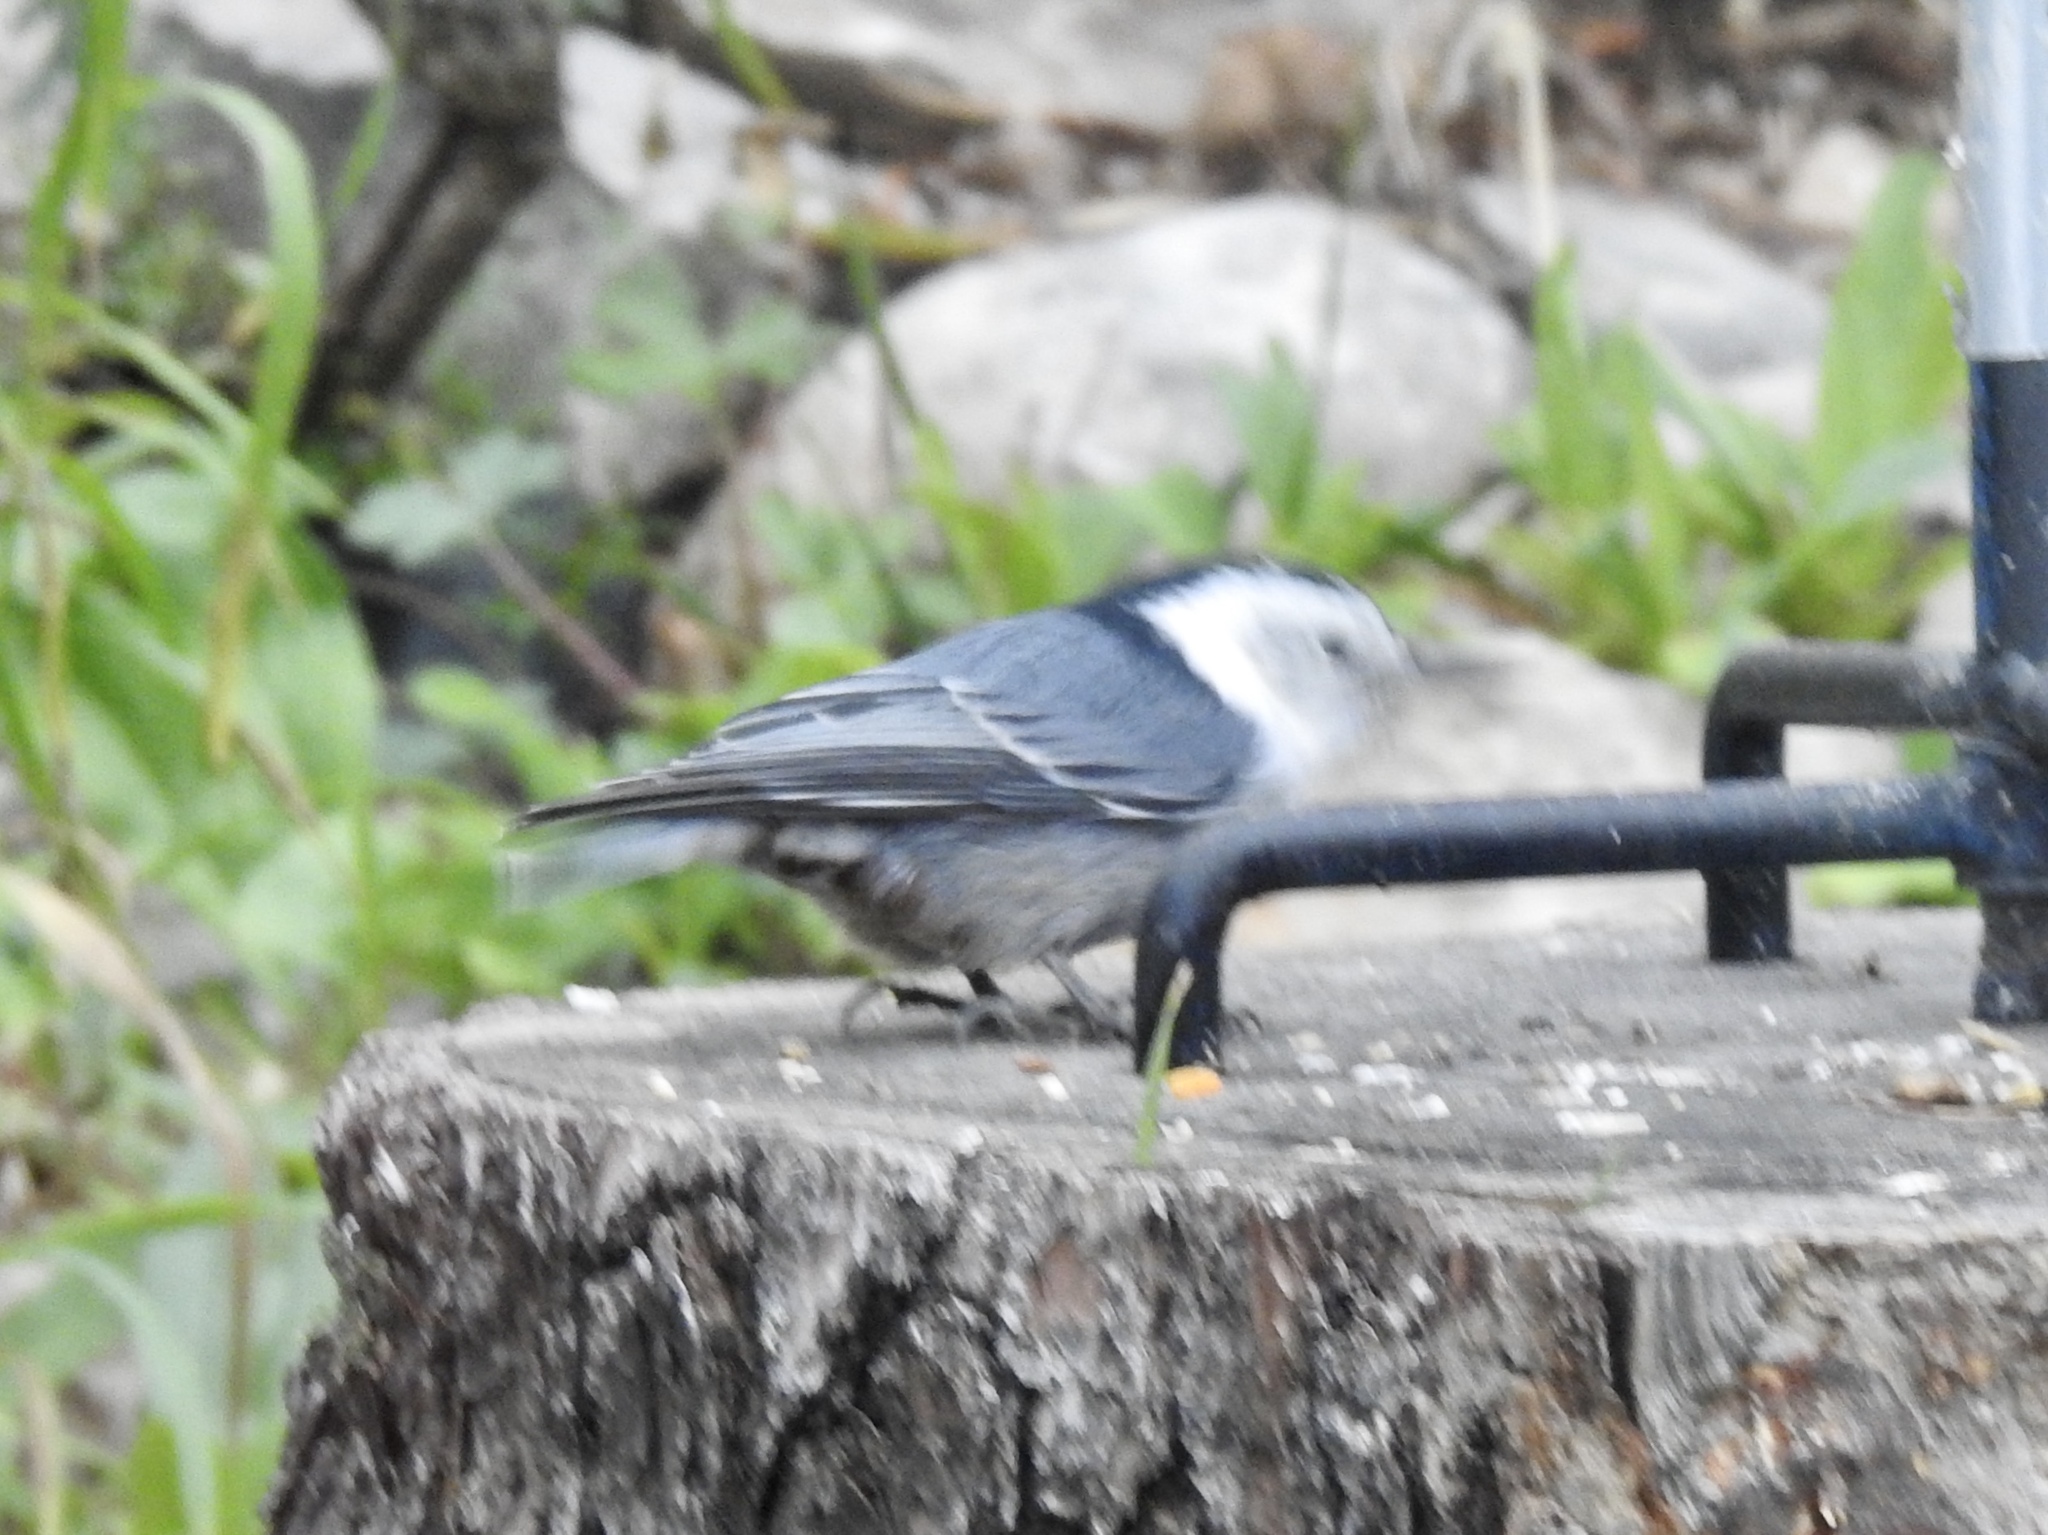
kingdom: Animalia
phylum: Chordata
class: Aves
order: Passeriformes
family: Sittidae
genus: Sitta
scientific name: Sitta carolinensis
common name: White-breasted nuthatch
